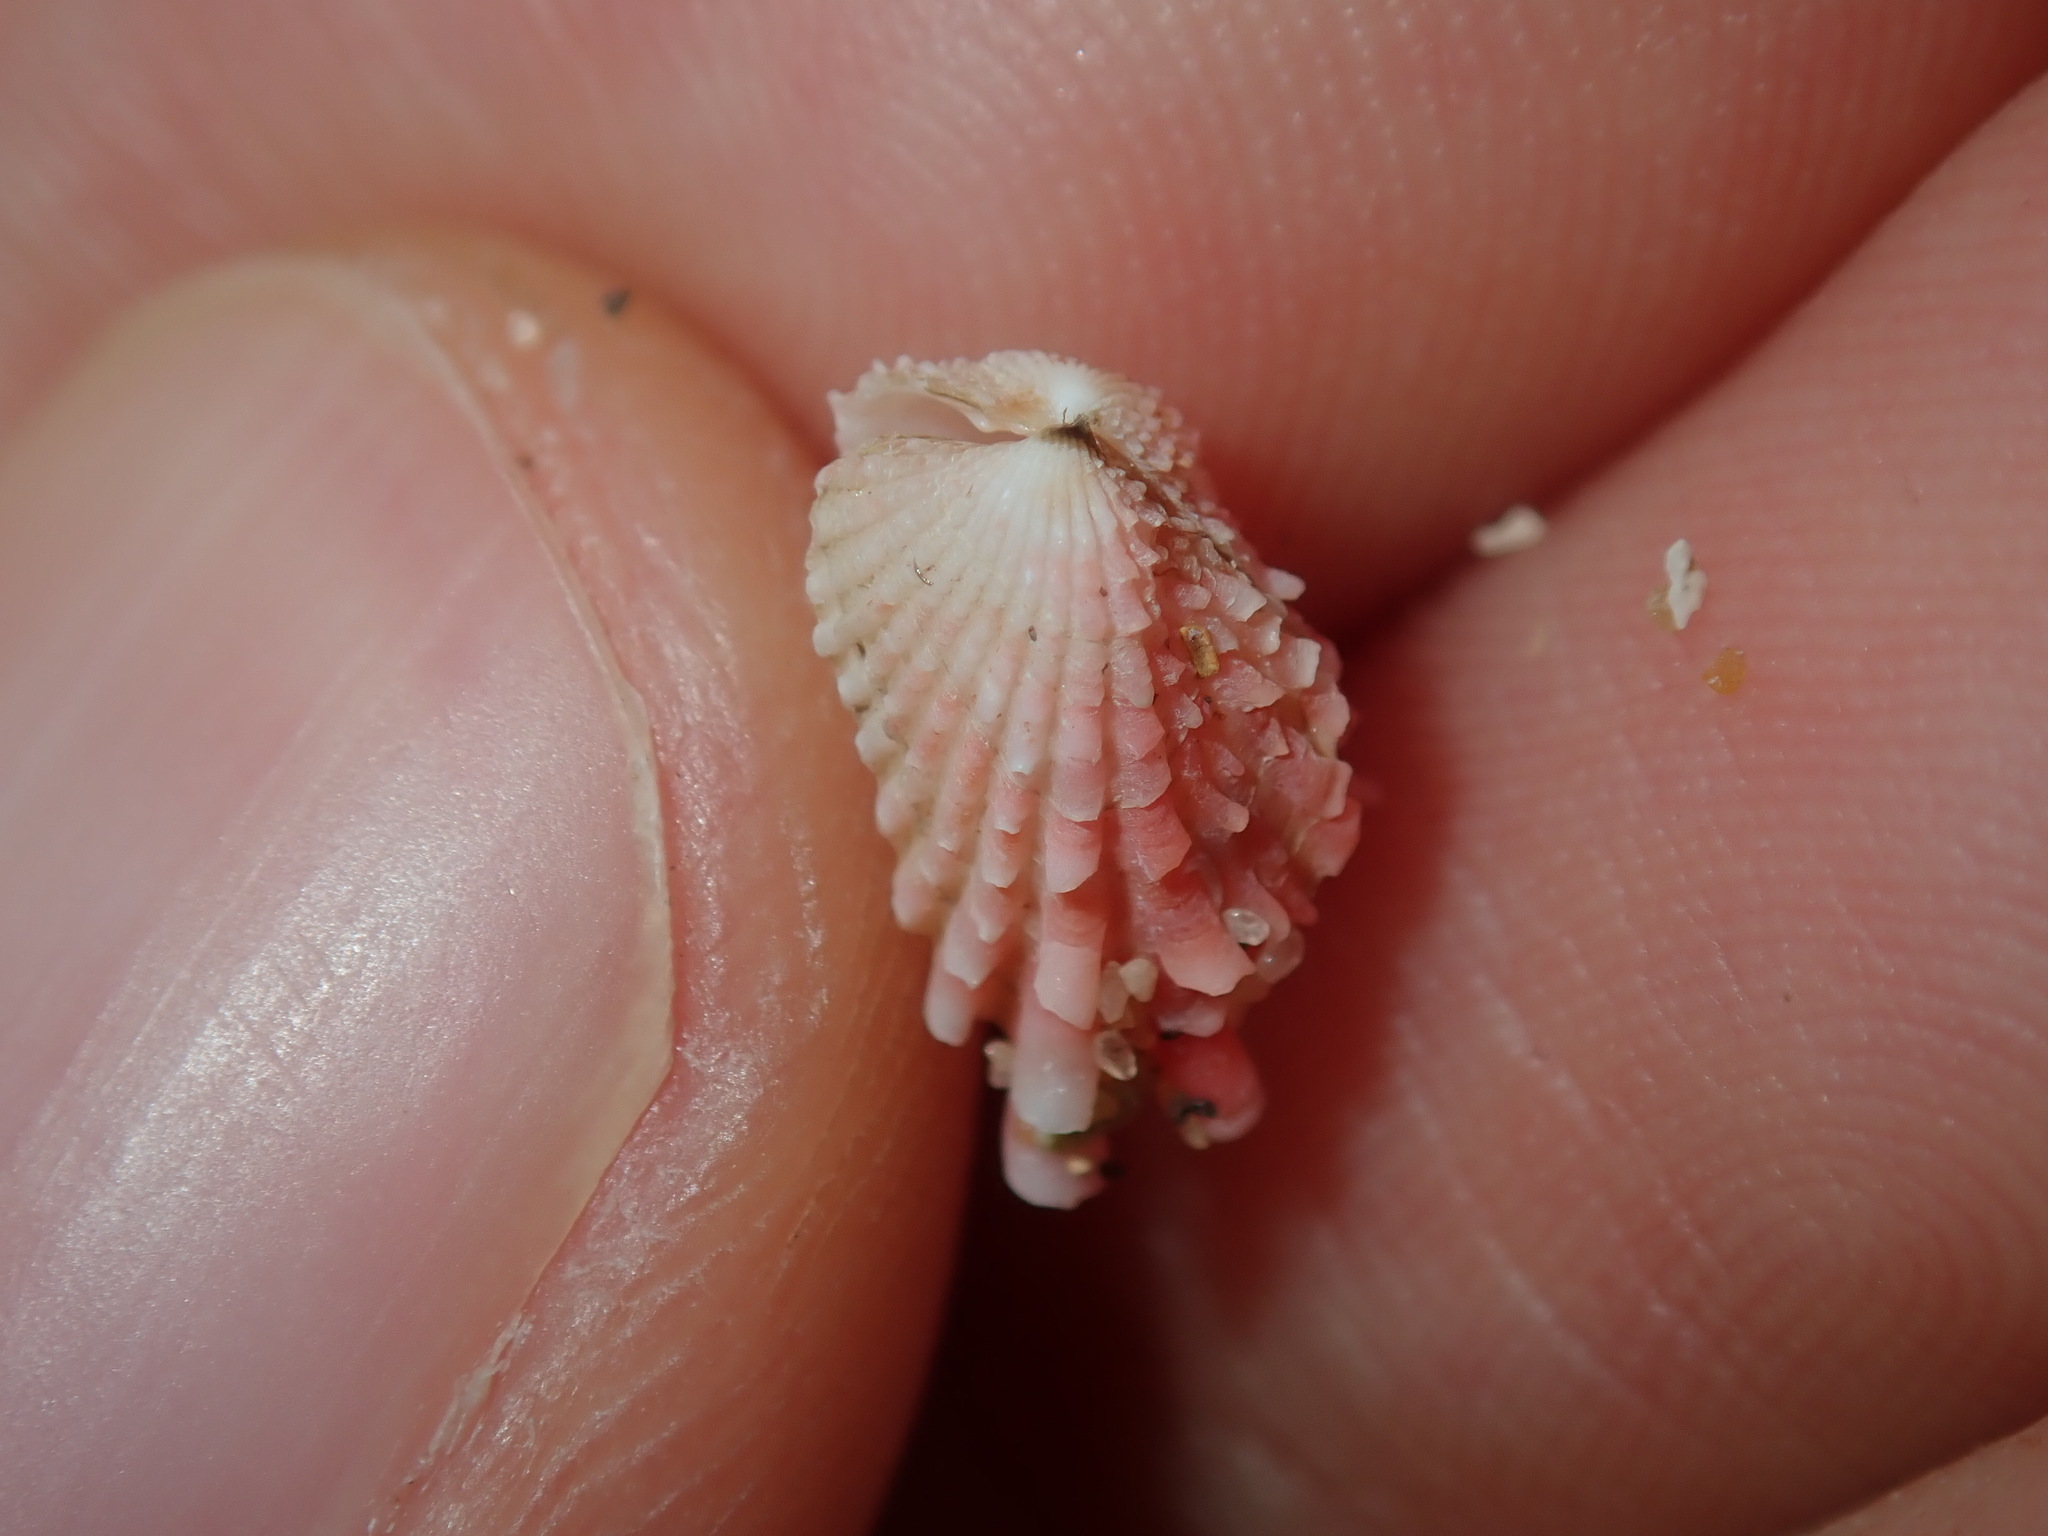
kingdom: Animalia
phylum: Mollusca
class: Bivalvia
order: Carditida
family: Carditidae
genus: Cardita
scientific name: Cardita aviculina
